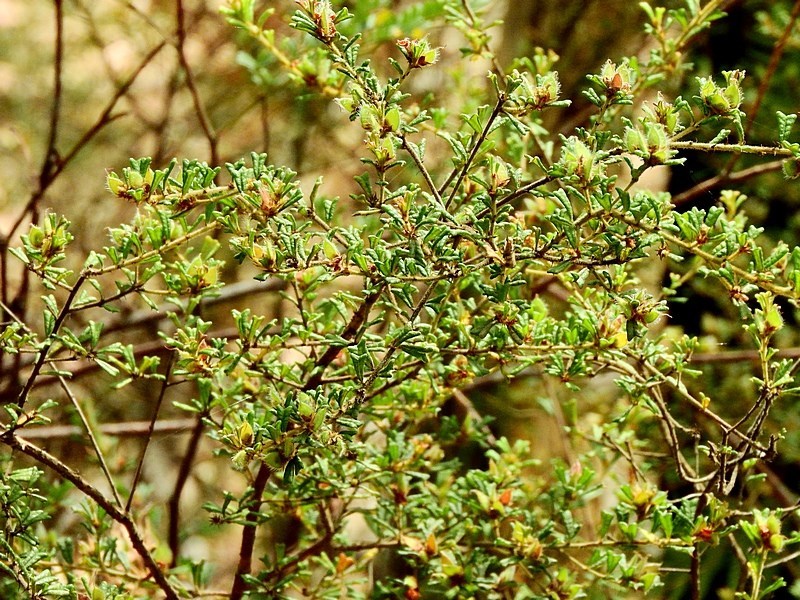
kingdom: Plantae
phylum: Tracheophyta
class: Magnoliopsida
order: Fabales
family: Fabaceae
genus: Pultenaea
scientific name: Pultenaea scabra
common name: Rough bush-pea
